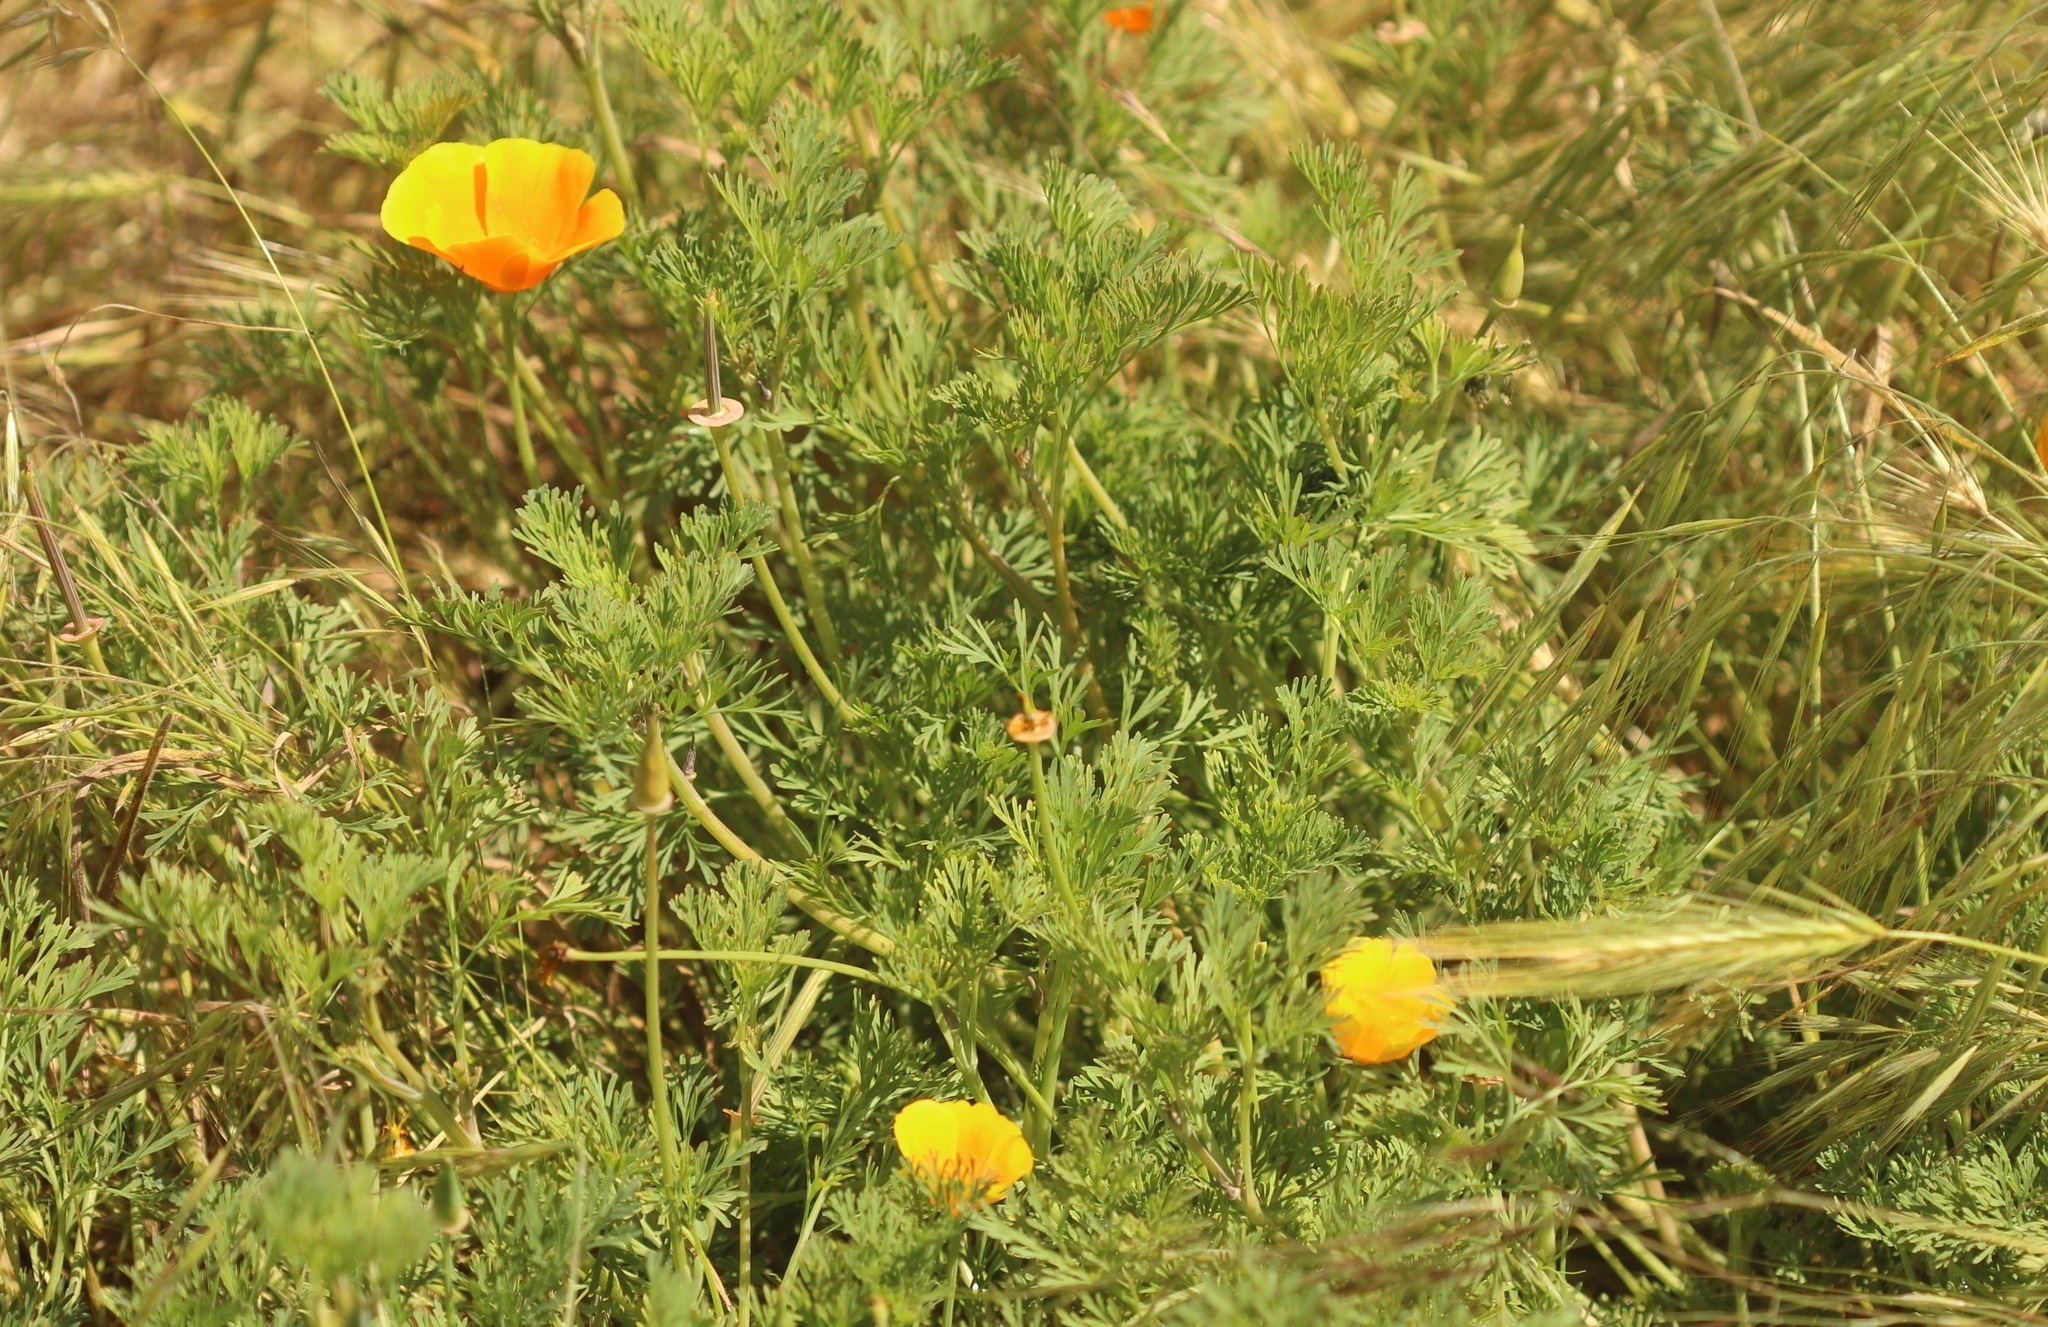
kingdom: Plantae
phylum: Tracheophyta
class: Magnoliopsida
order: Ranunculales
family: Papaveraceae
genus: Eschscholzia
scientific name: Eschscholzia californica
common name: California poppy
